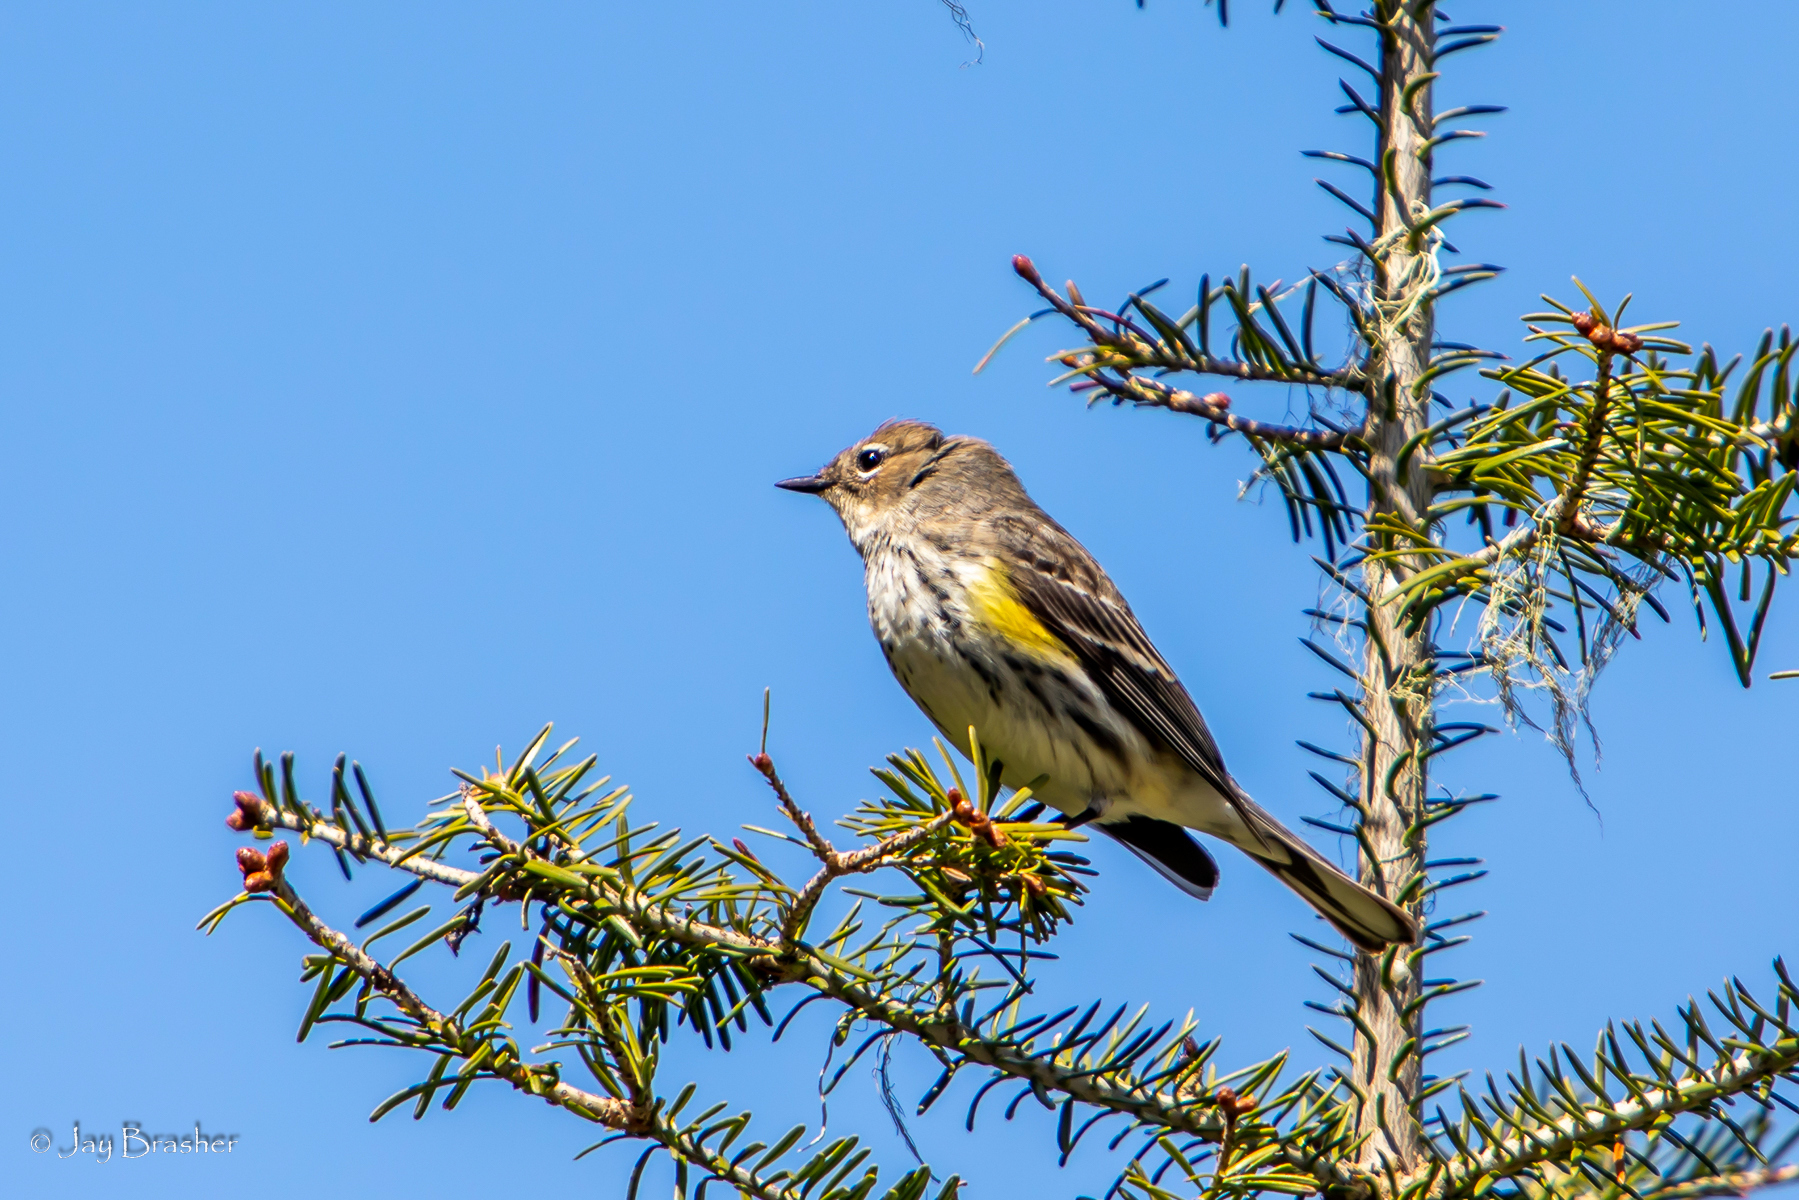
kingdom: Animalia
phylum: Chordata
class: Aves
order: Passeriformes
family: Parulidae
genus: Setophaga
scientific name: Setophaga coronata
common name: Myrtle warbler
